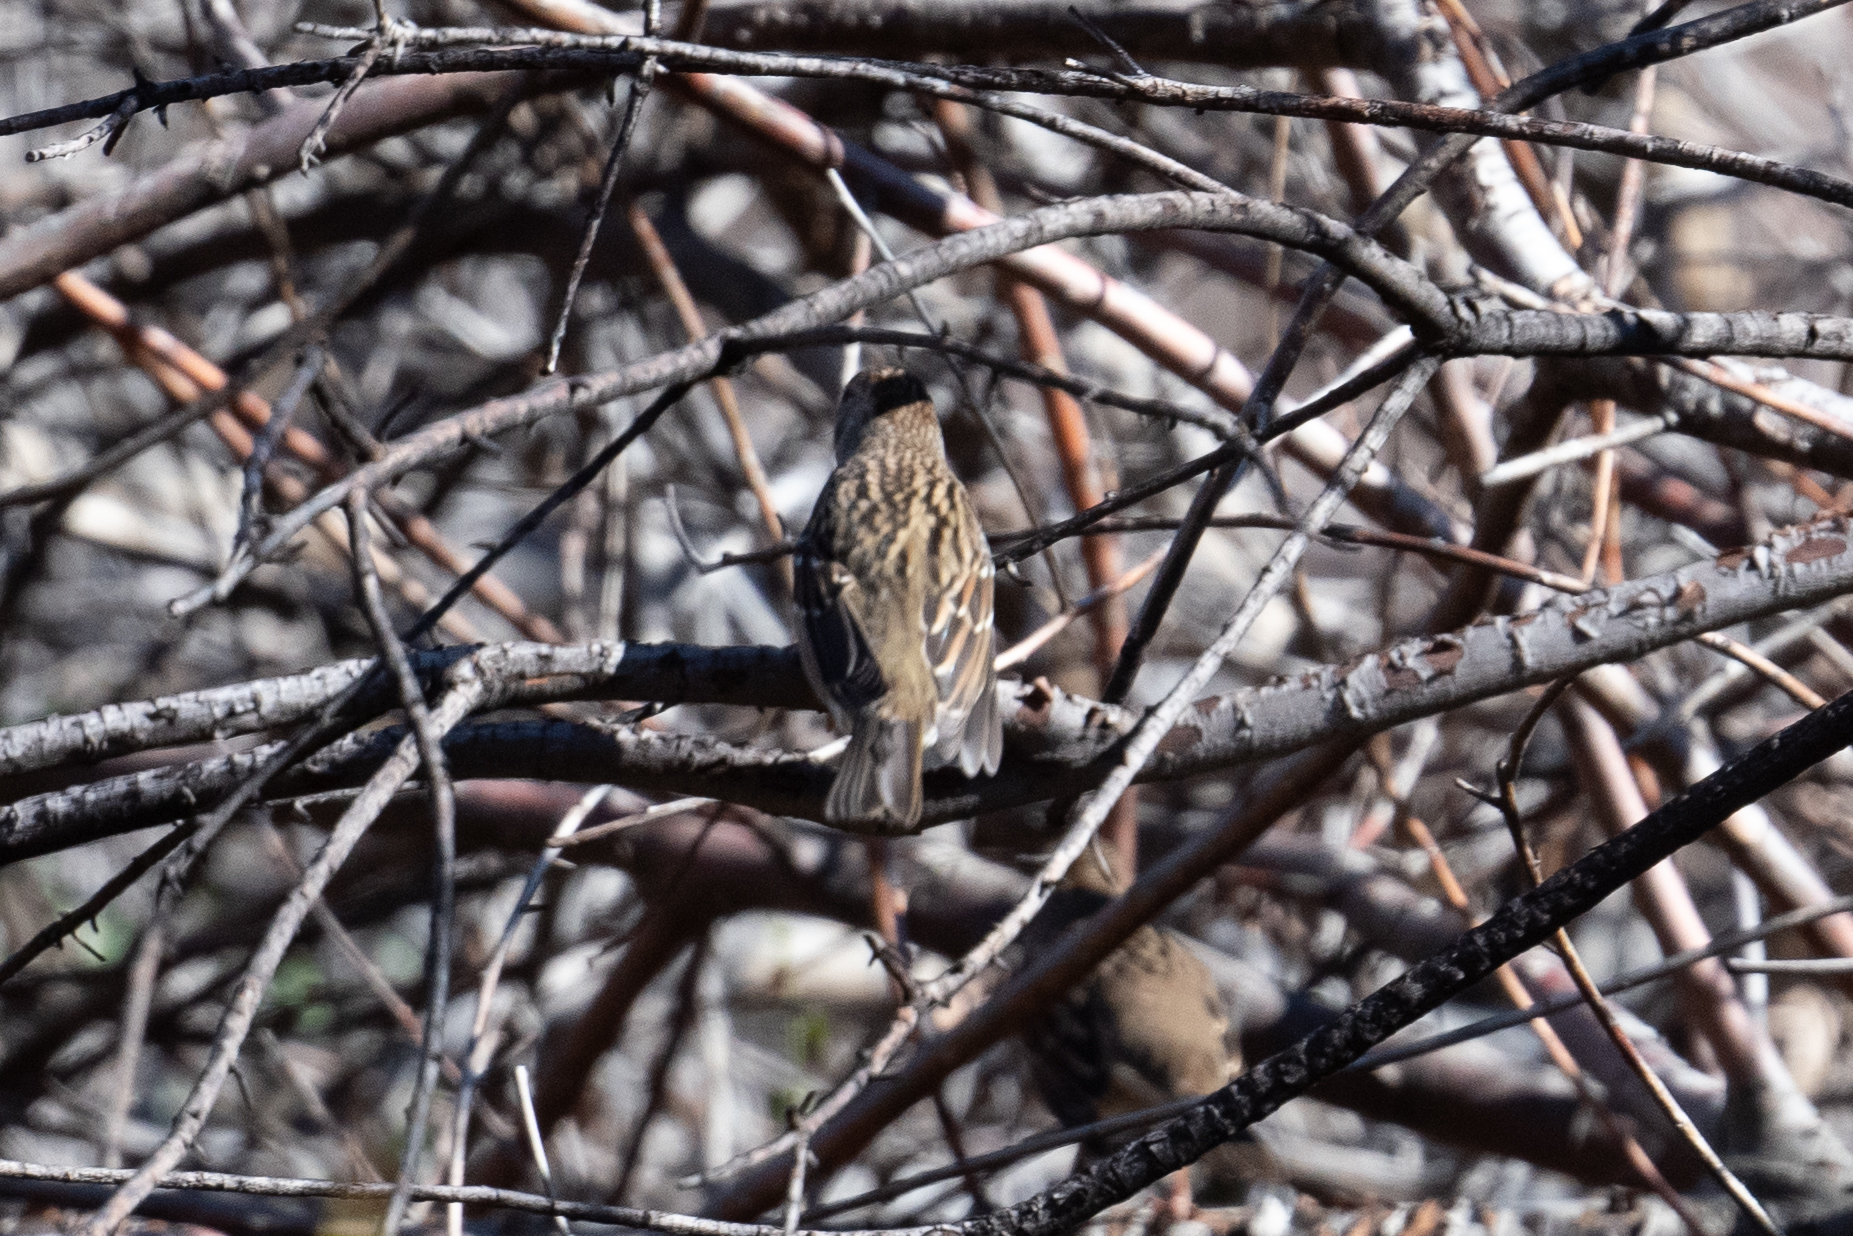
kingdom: Animalia
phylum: Chordata
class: Aves
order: Passeriformes
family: Passerellidae
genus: Zonotrichia
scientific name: Zonotrichia atricapilla
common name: Golden-crowned sparrow
